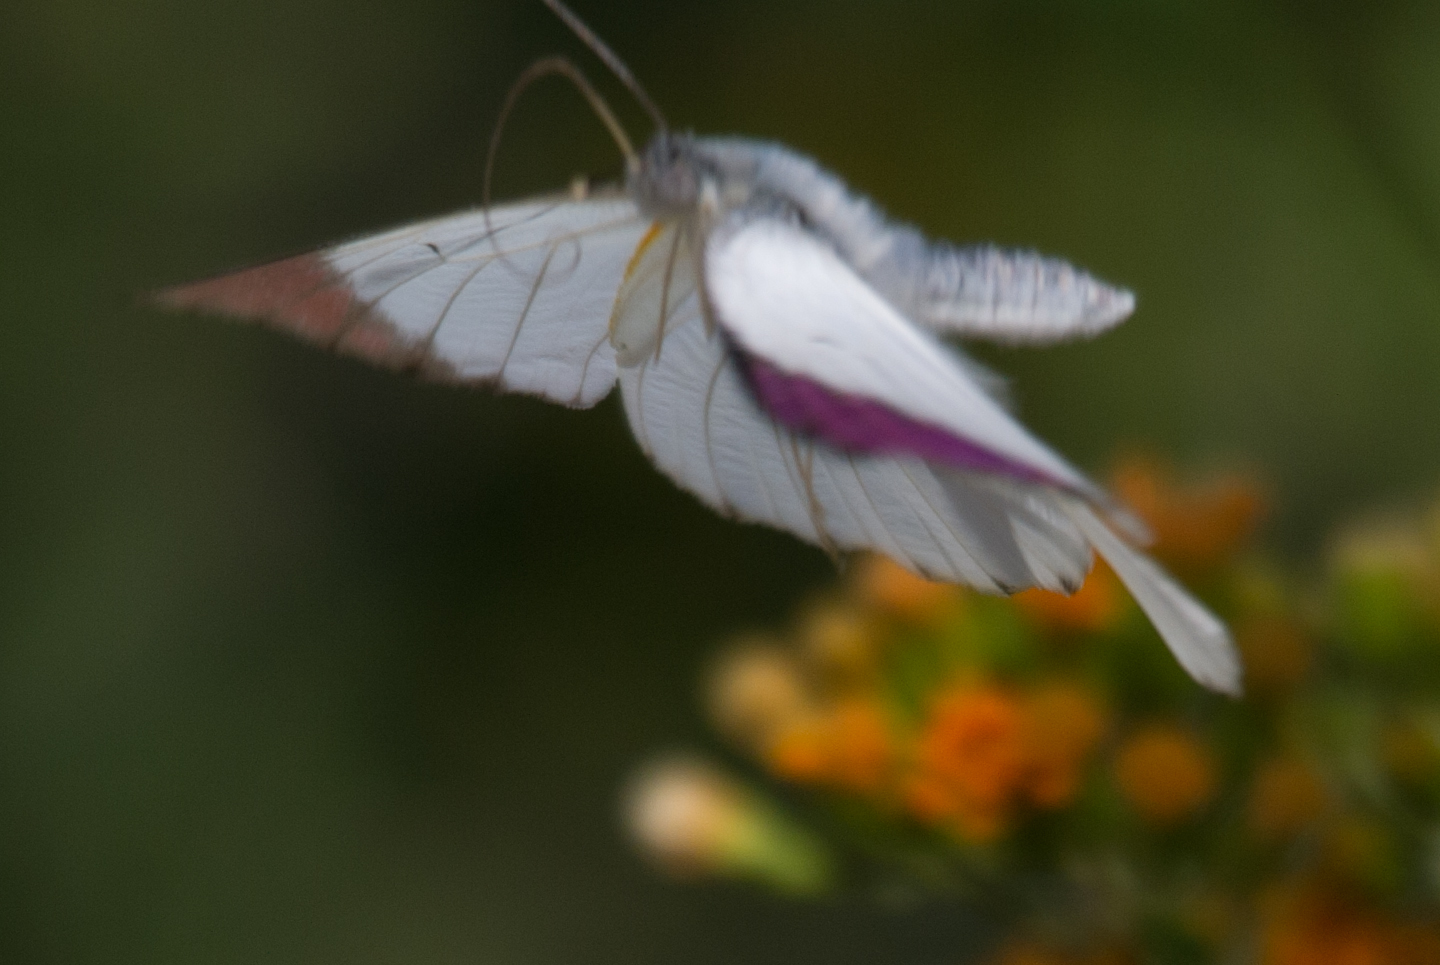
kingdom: Animalia
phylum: Arthropoda
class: Insecta
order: Lepidoptera
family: Pieridae
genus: Colotis
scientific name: Colotis regina
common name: Queen purple tip
